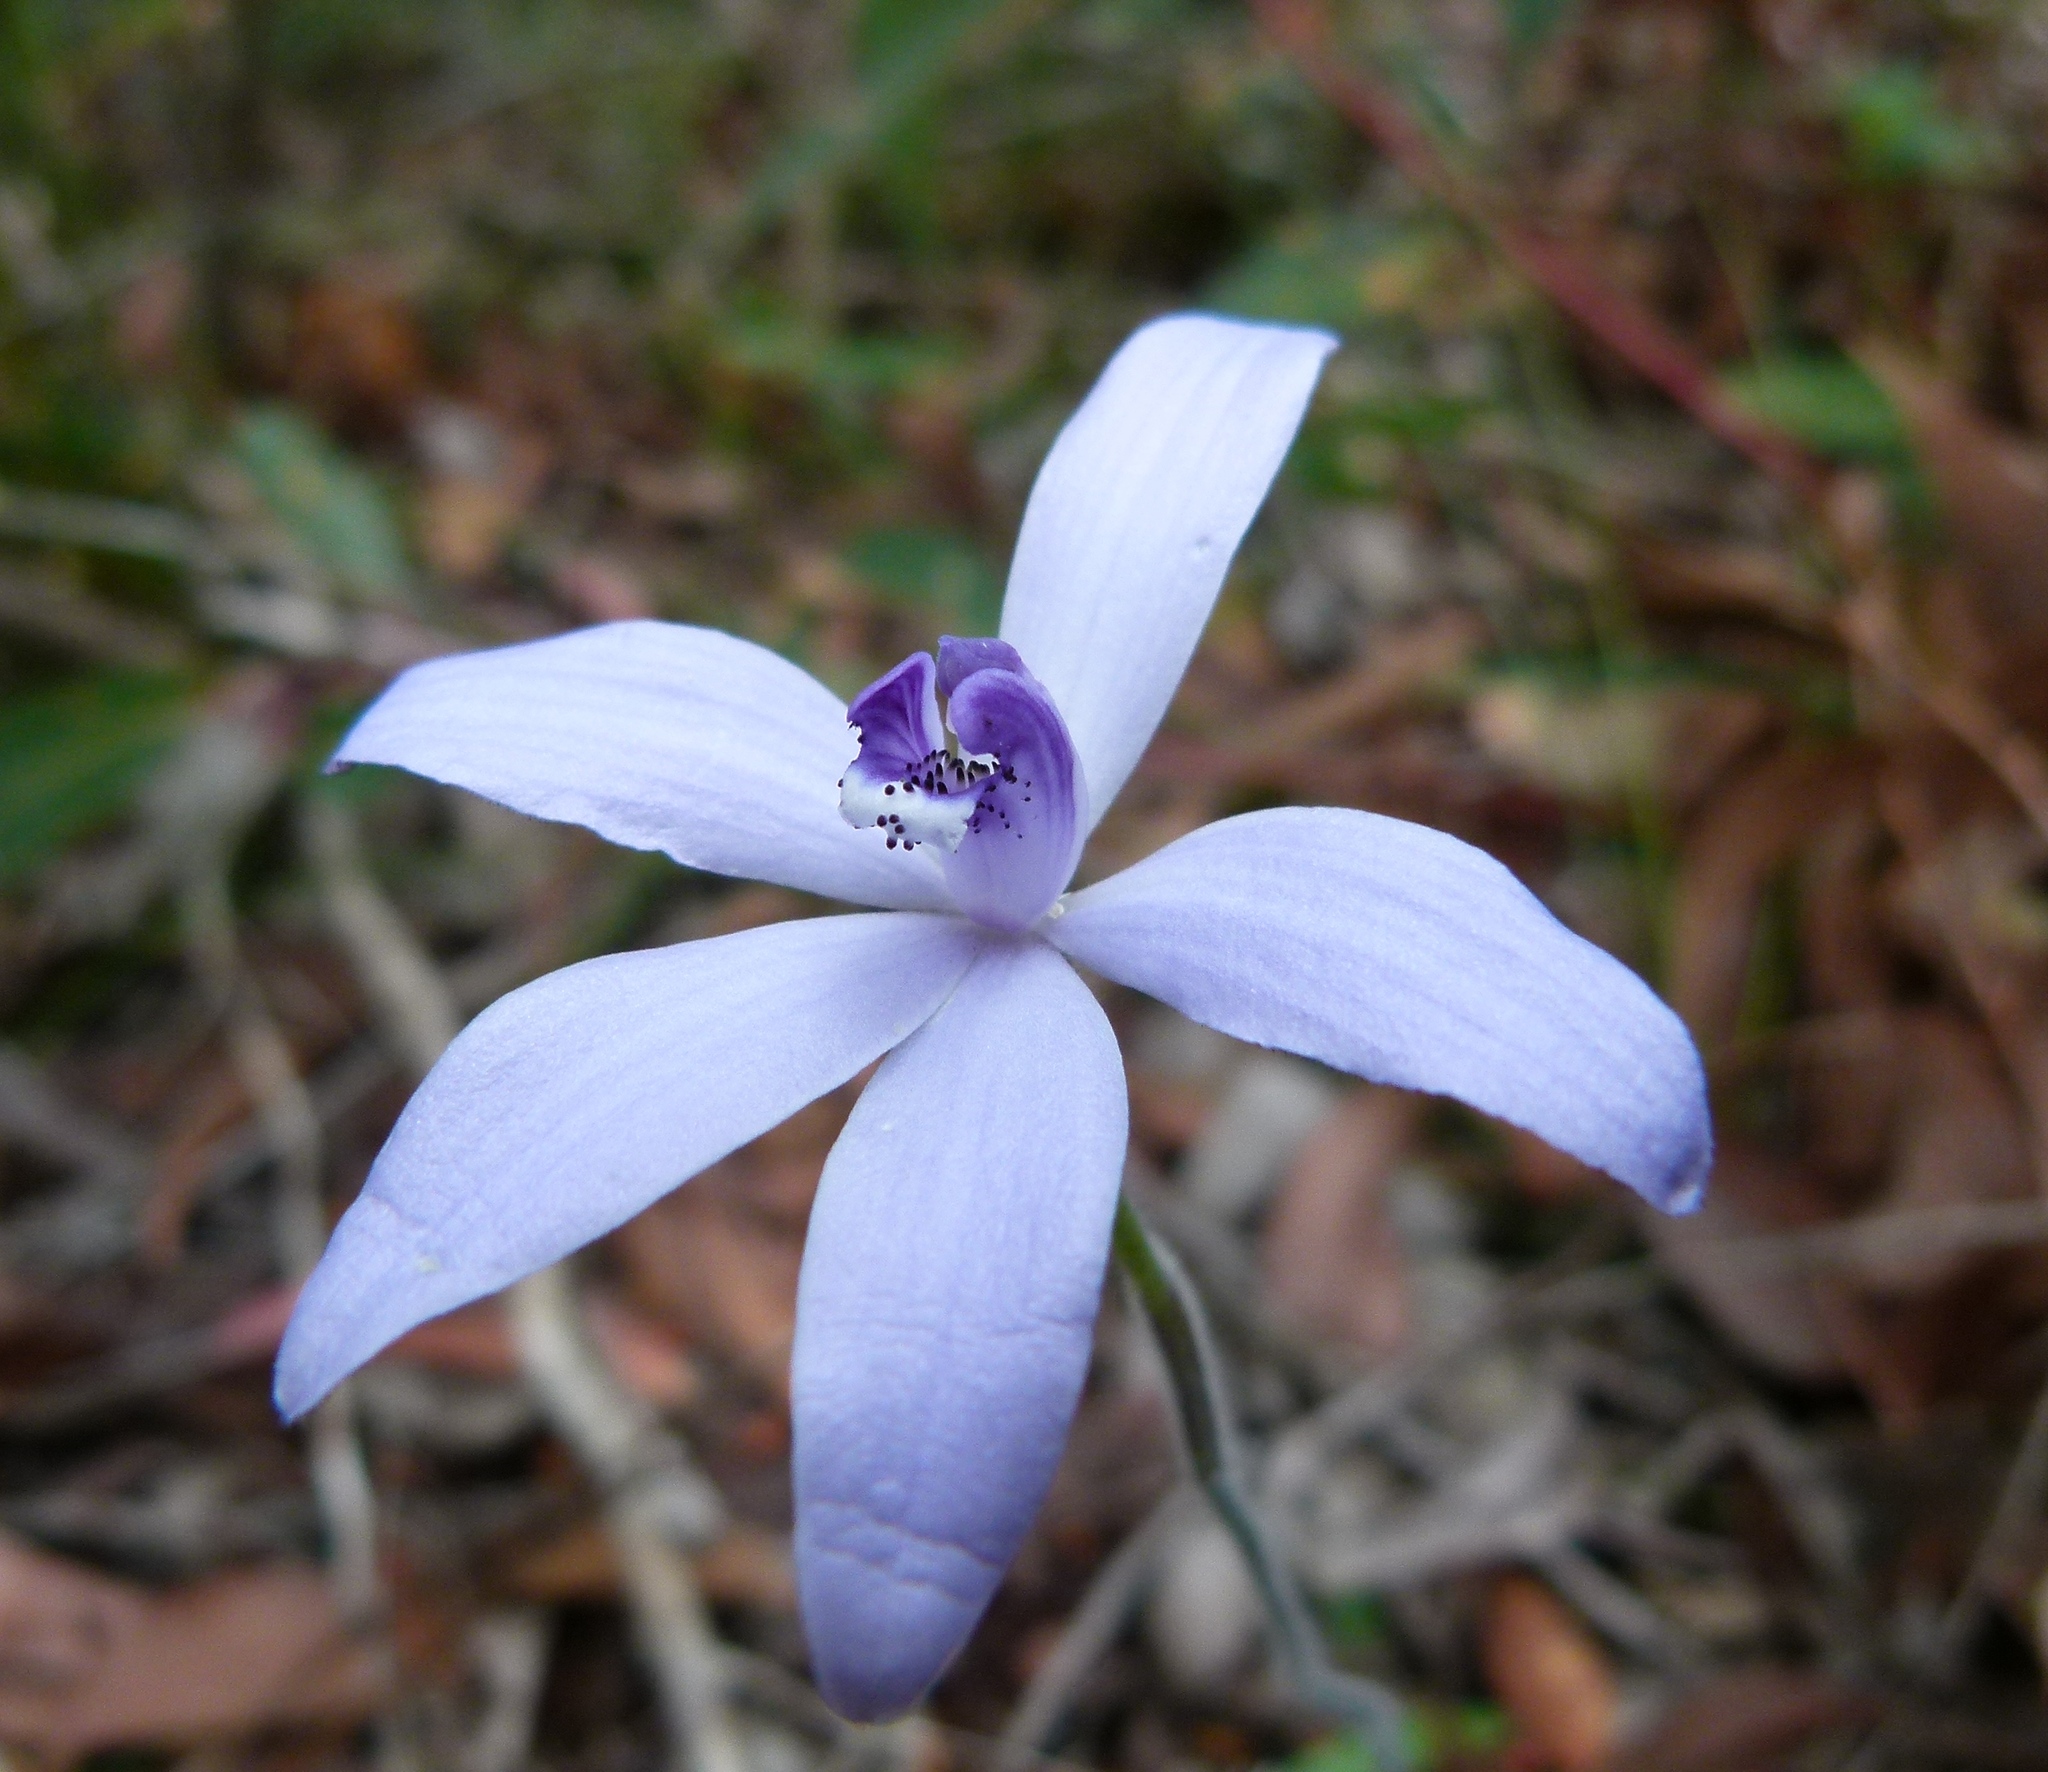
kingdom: Plantae
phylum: Tracheophyta
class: Liliopsida
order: Asparagales
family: Orchidaceae
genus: Caladenia
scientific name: Caladenia sericea
